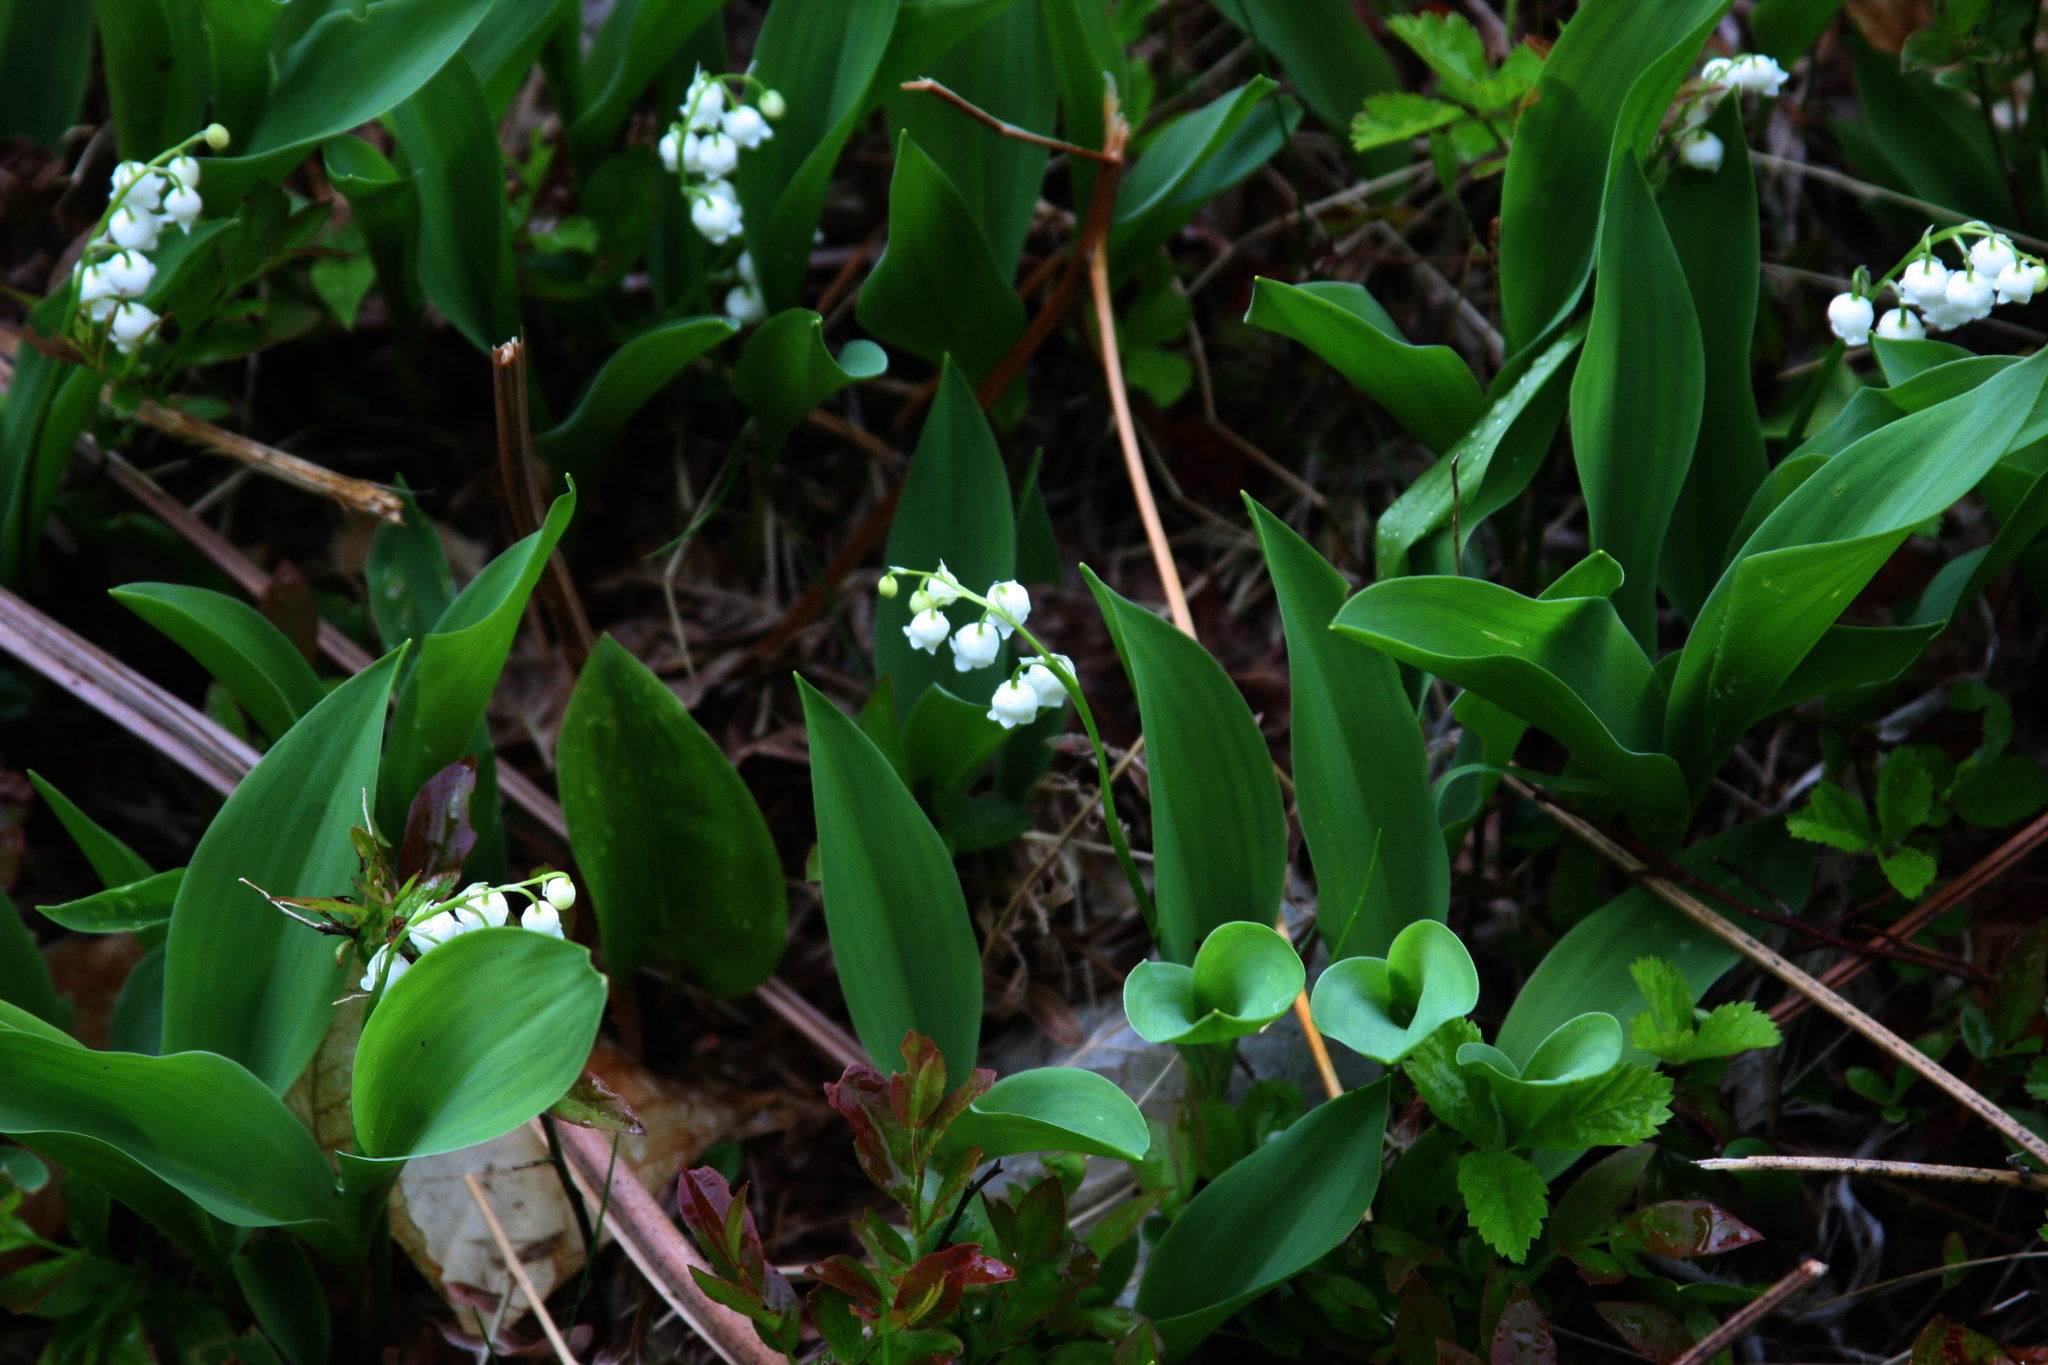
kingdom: Plantae
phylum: Tracheophyta
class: Liliopsida
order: Asparagales
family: Asparagaceae
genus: Convallaria
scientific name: Convallaria majalis
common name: Lily-of-the-valley
